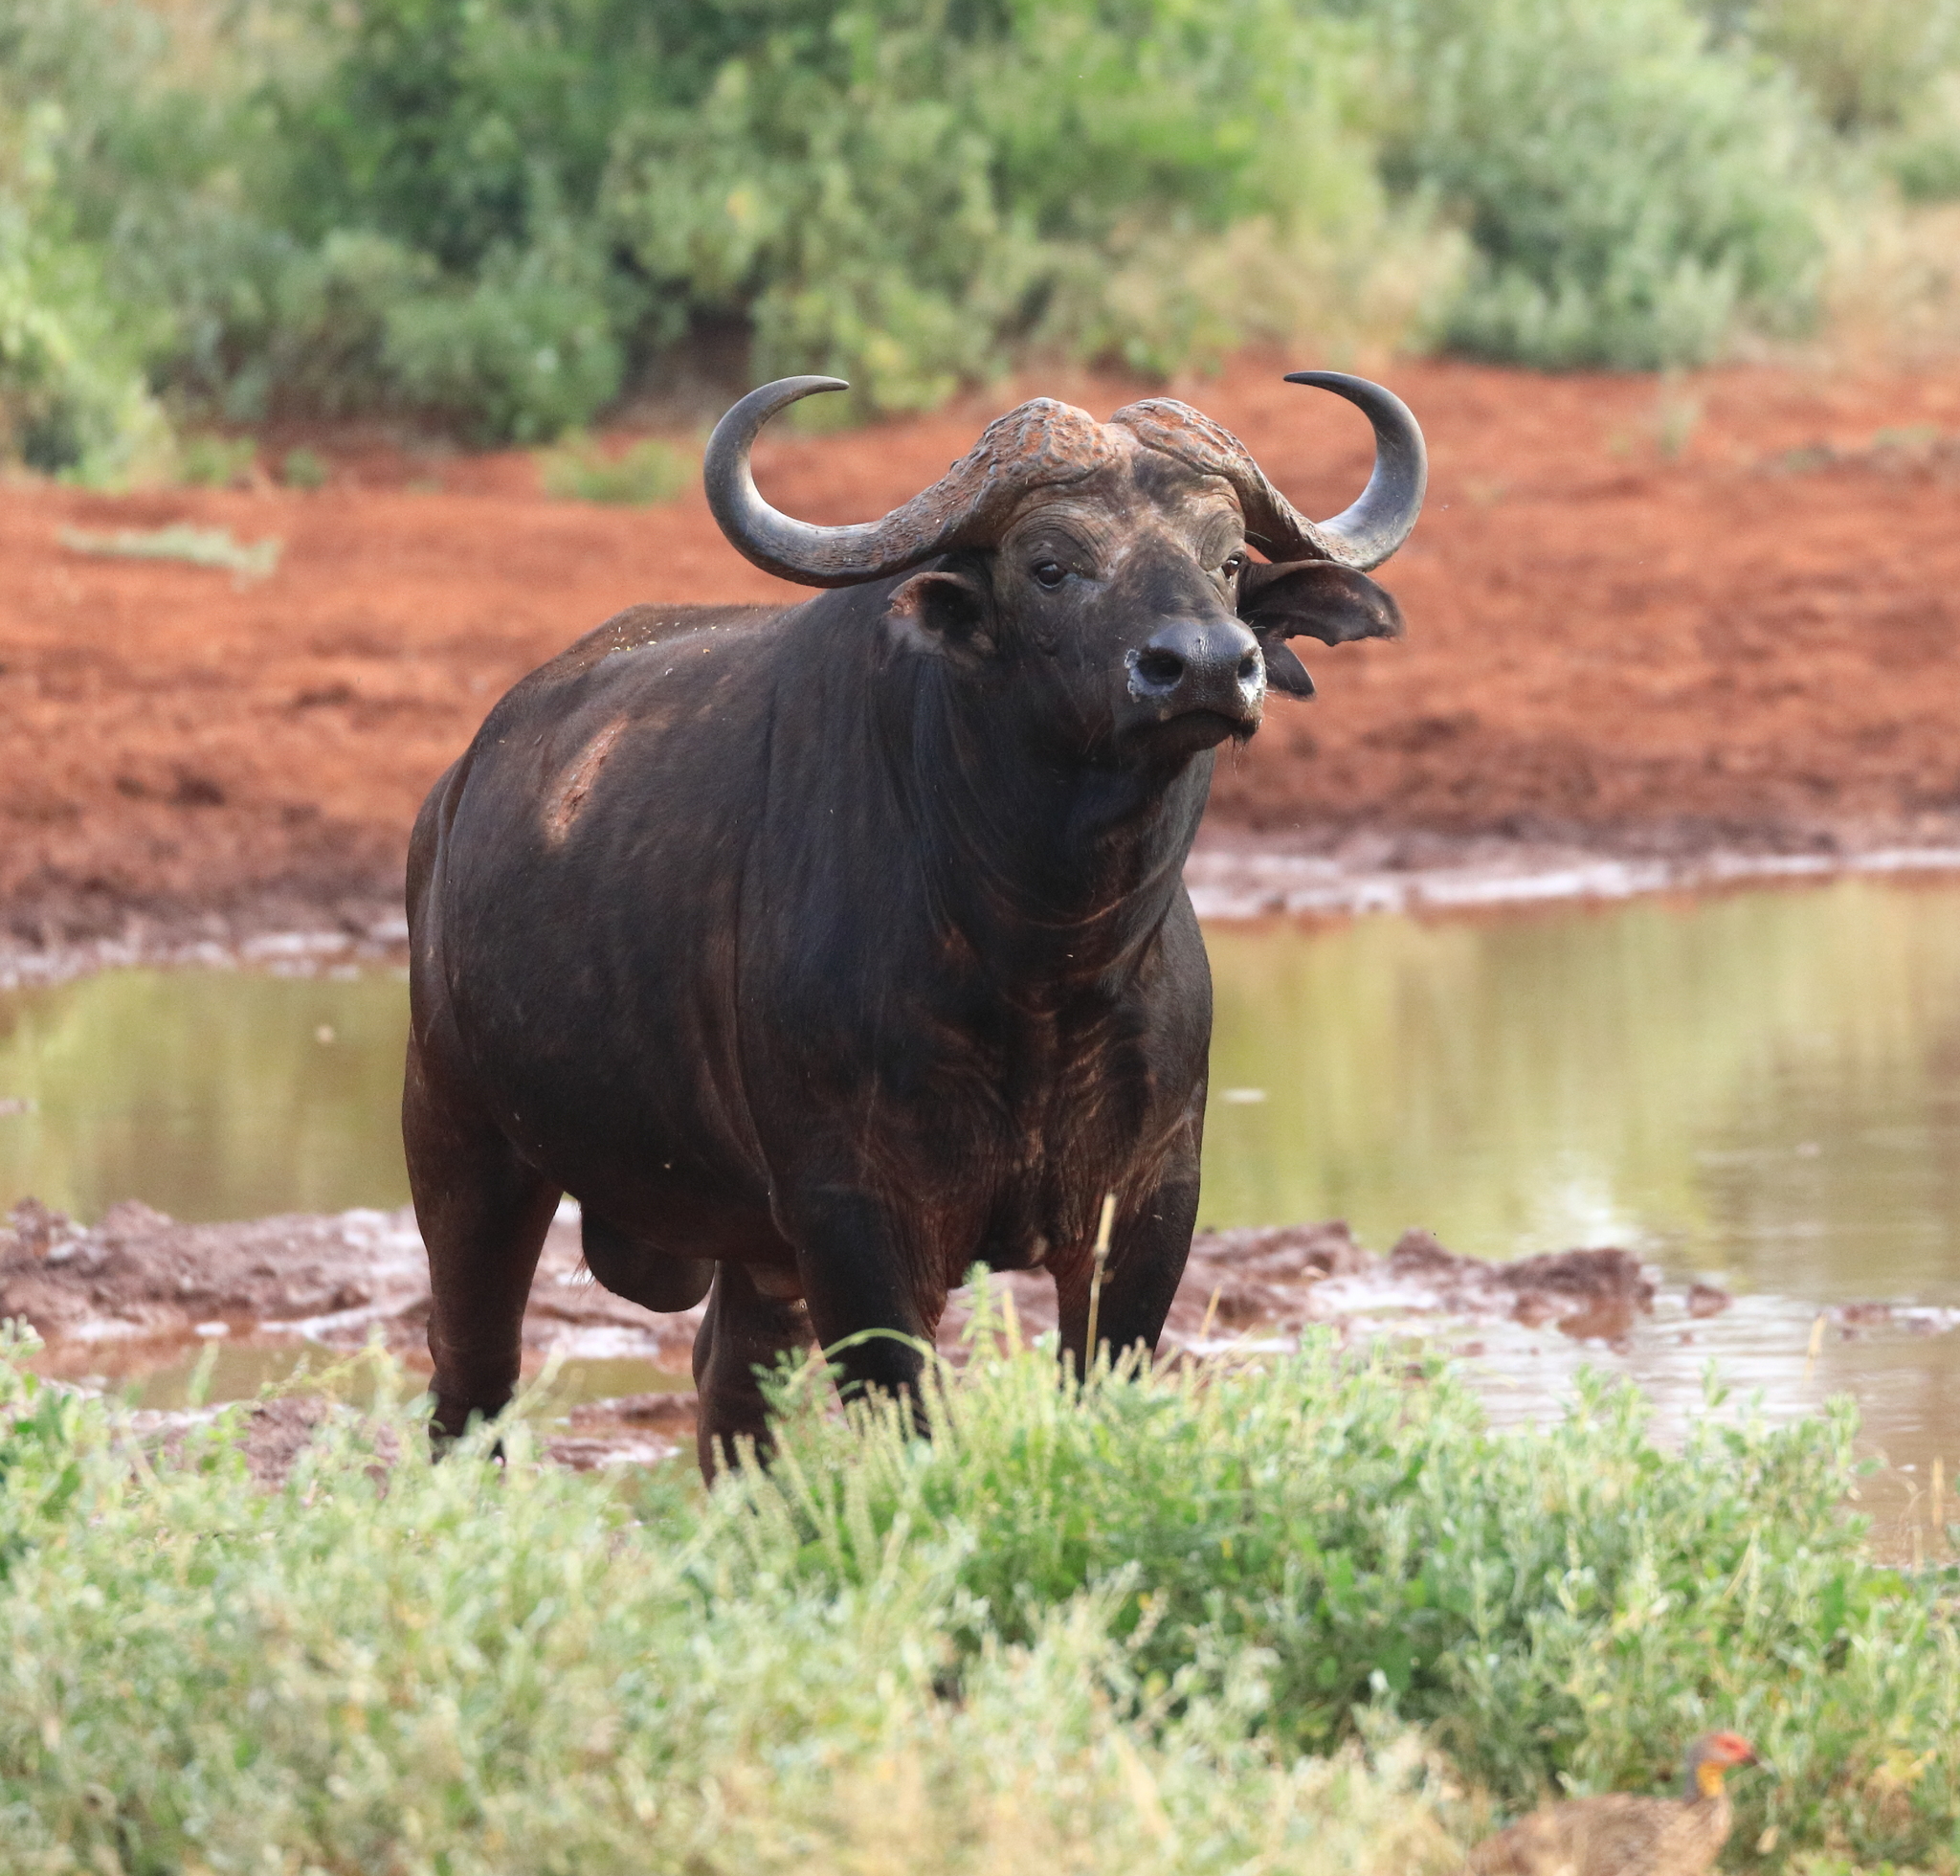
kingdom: Animalia
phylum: Chordata
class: Mammalia
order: Artiodactyla
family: Bovidae
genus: Syncerus
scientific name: Syncerus caffer
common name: African buffalo
